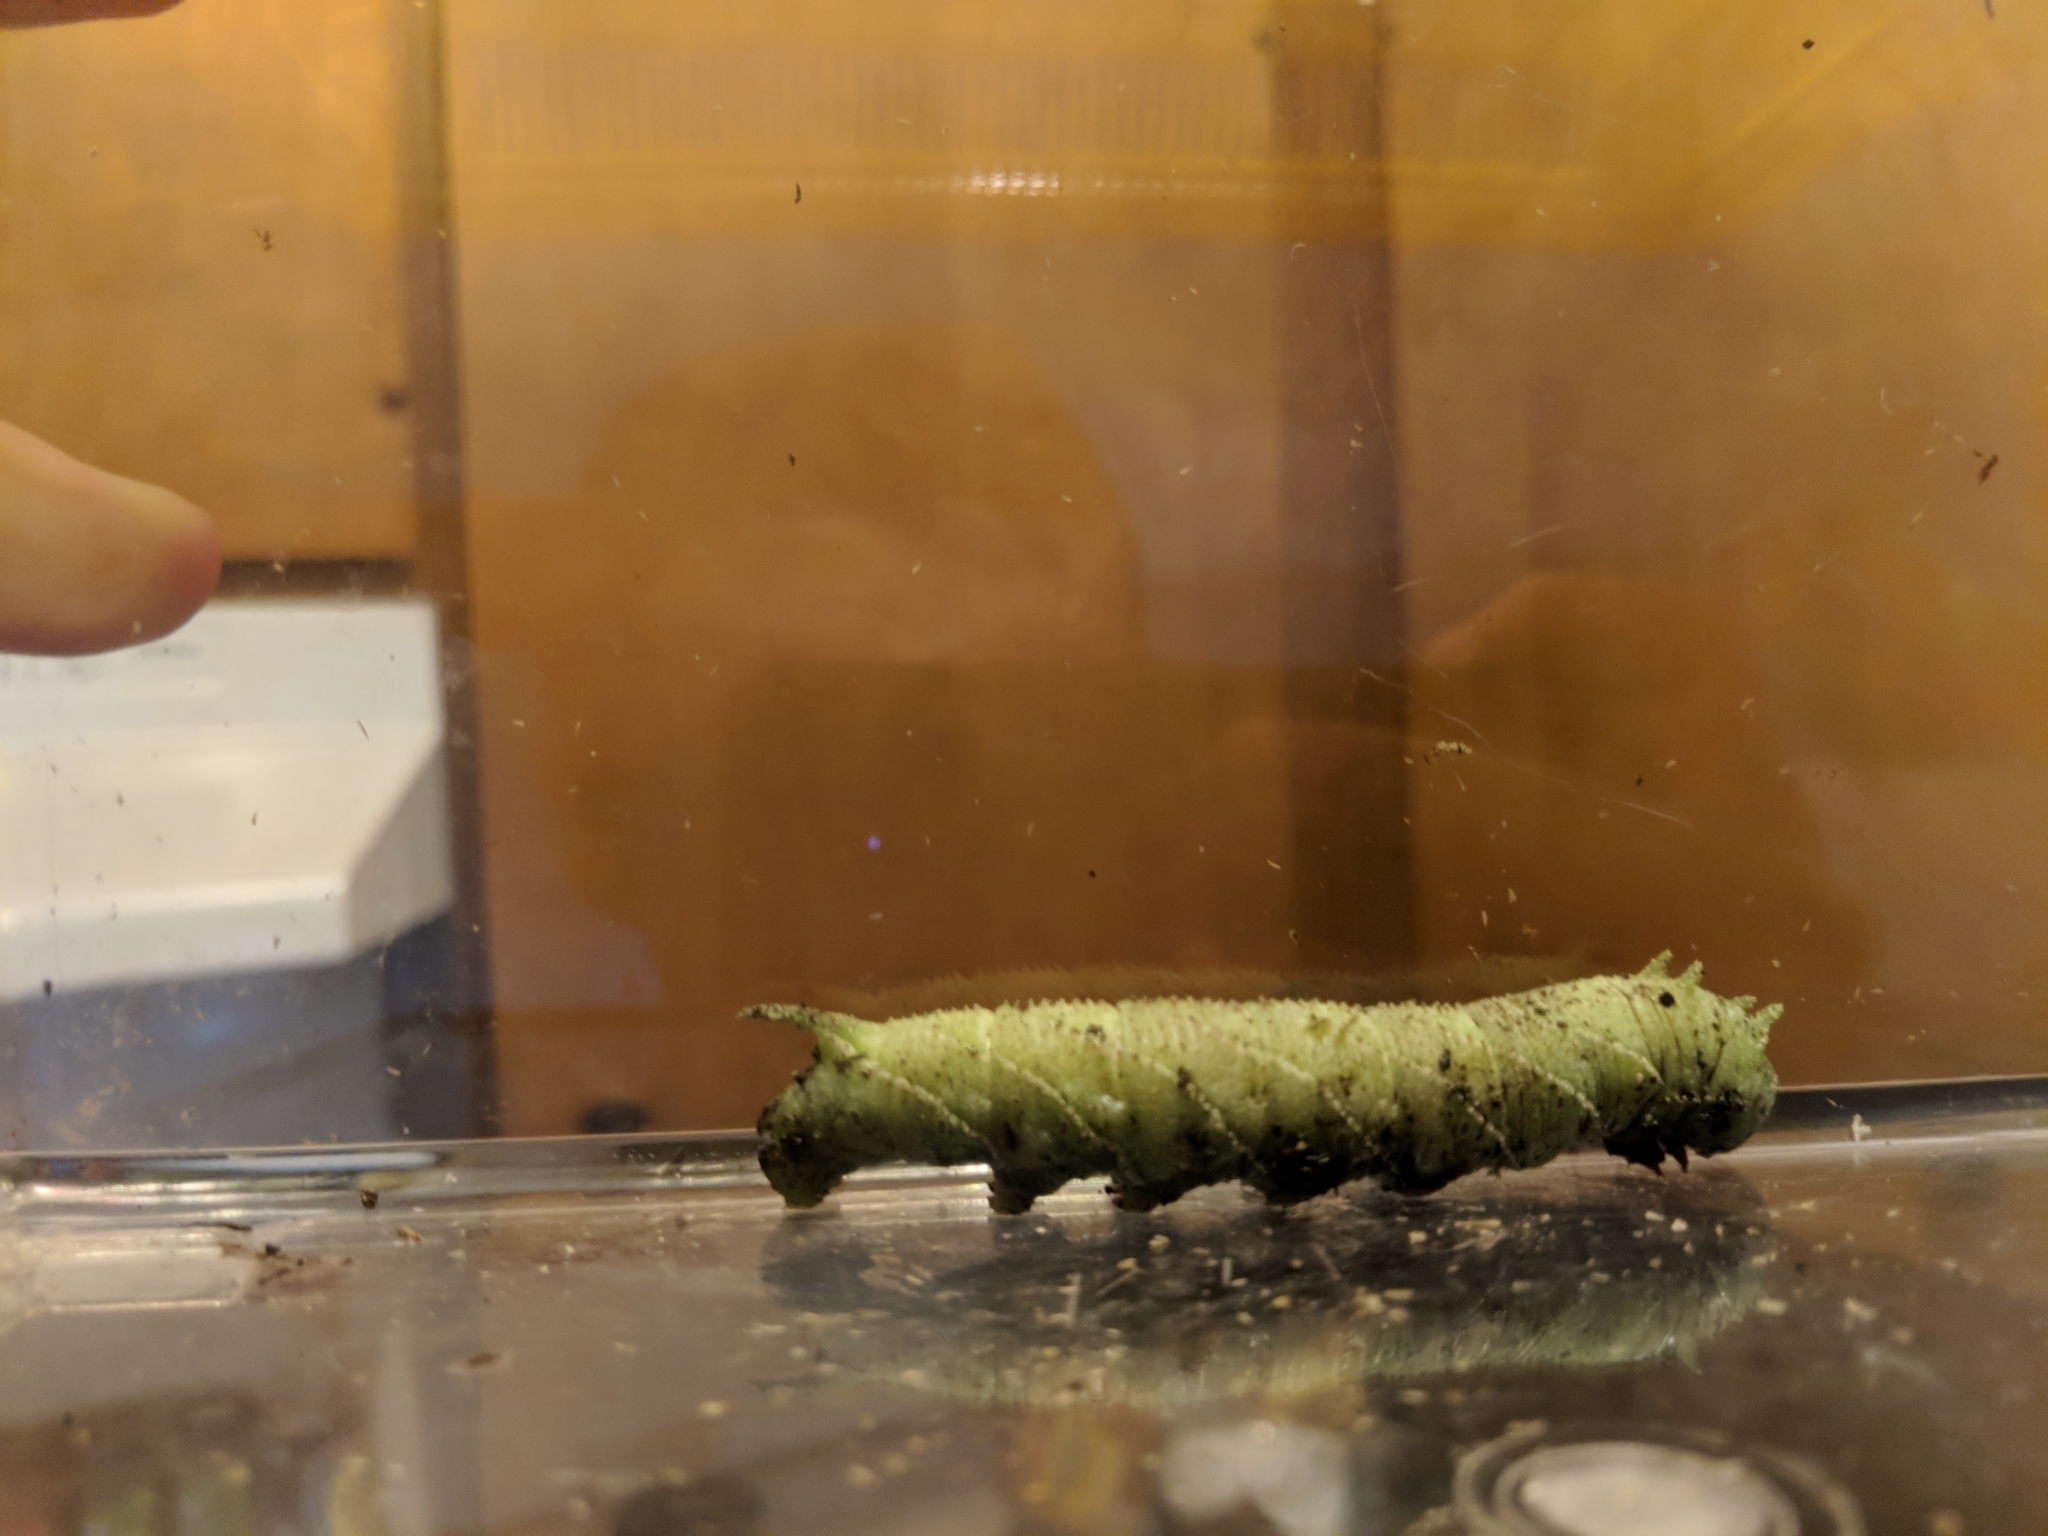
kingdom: Animalia
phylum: Arthropoda
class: Insecta
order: Lepidoptera
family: Sphingidae
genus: Ceratomia
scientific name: Ceratomia amyntor
